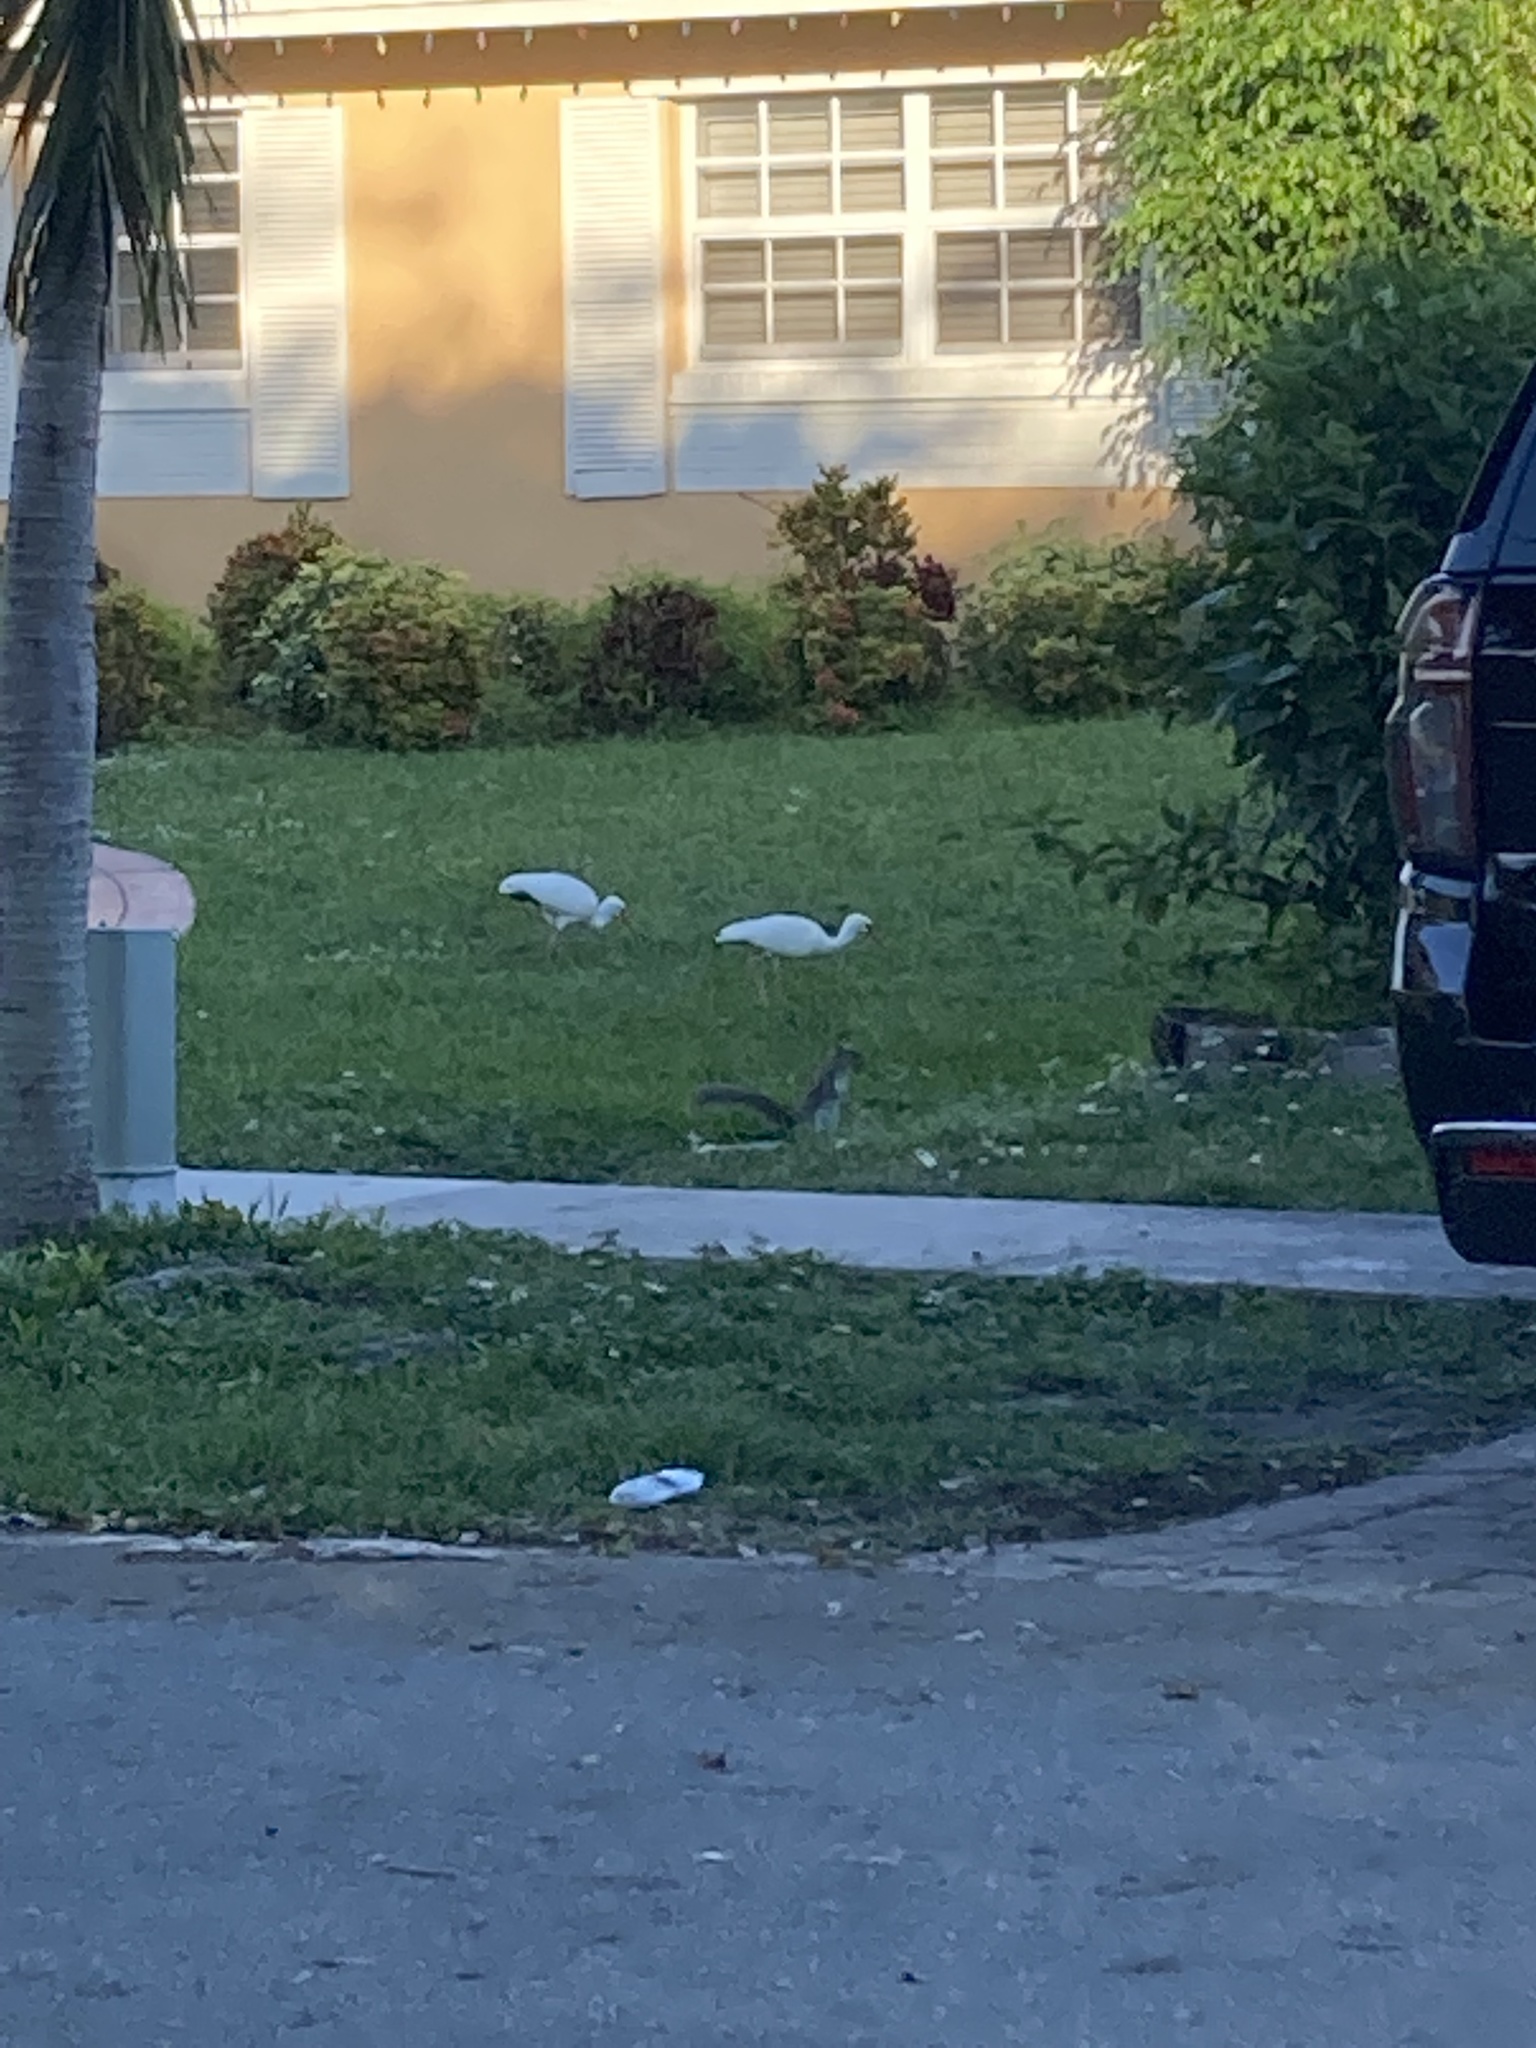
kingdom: Animalia
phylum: Chordata
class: Aves
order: Pelecaniformes
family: Threskiornithidae
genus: Eudocimus
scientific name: Eudocimus albus
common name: White ibis
